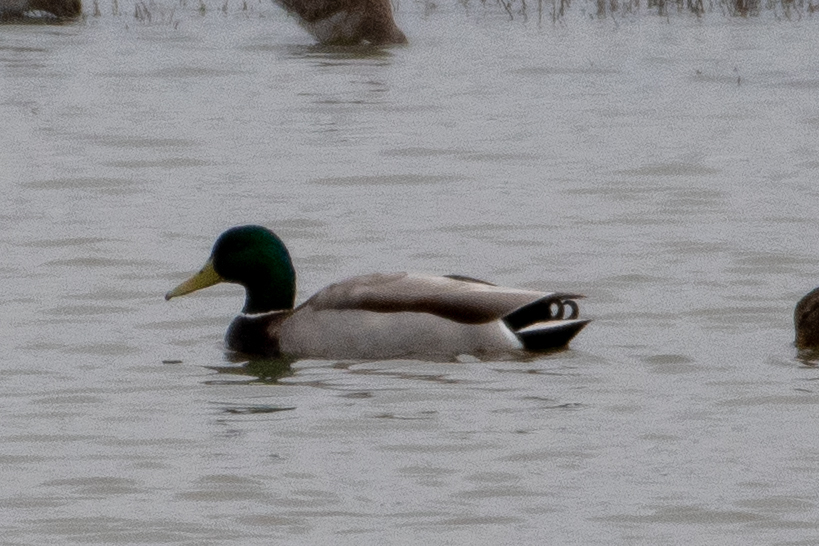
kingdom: Animalia
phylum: Chordata
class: Aves
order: Anseriformes
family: Anatidae
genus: Anas
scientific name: Anas platyrhynchos
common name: Mallard
